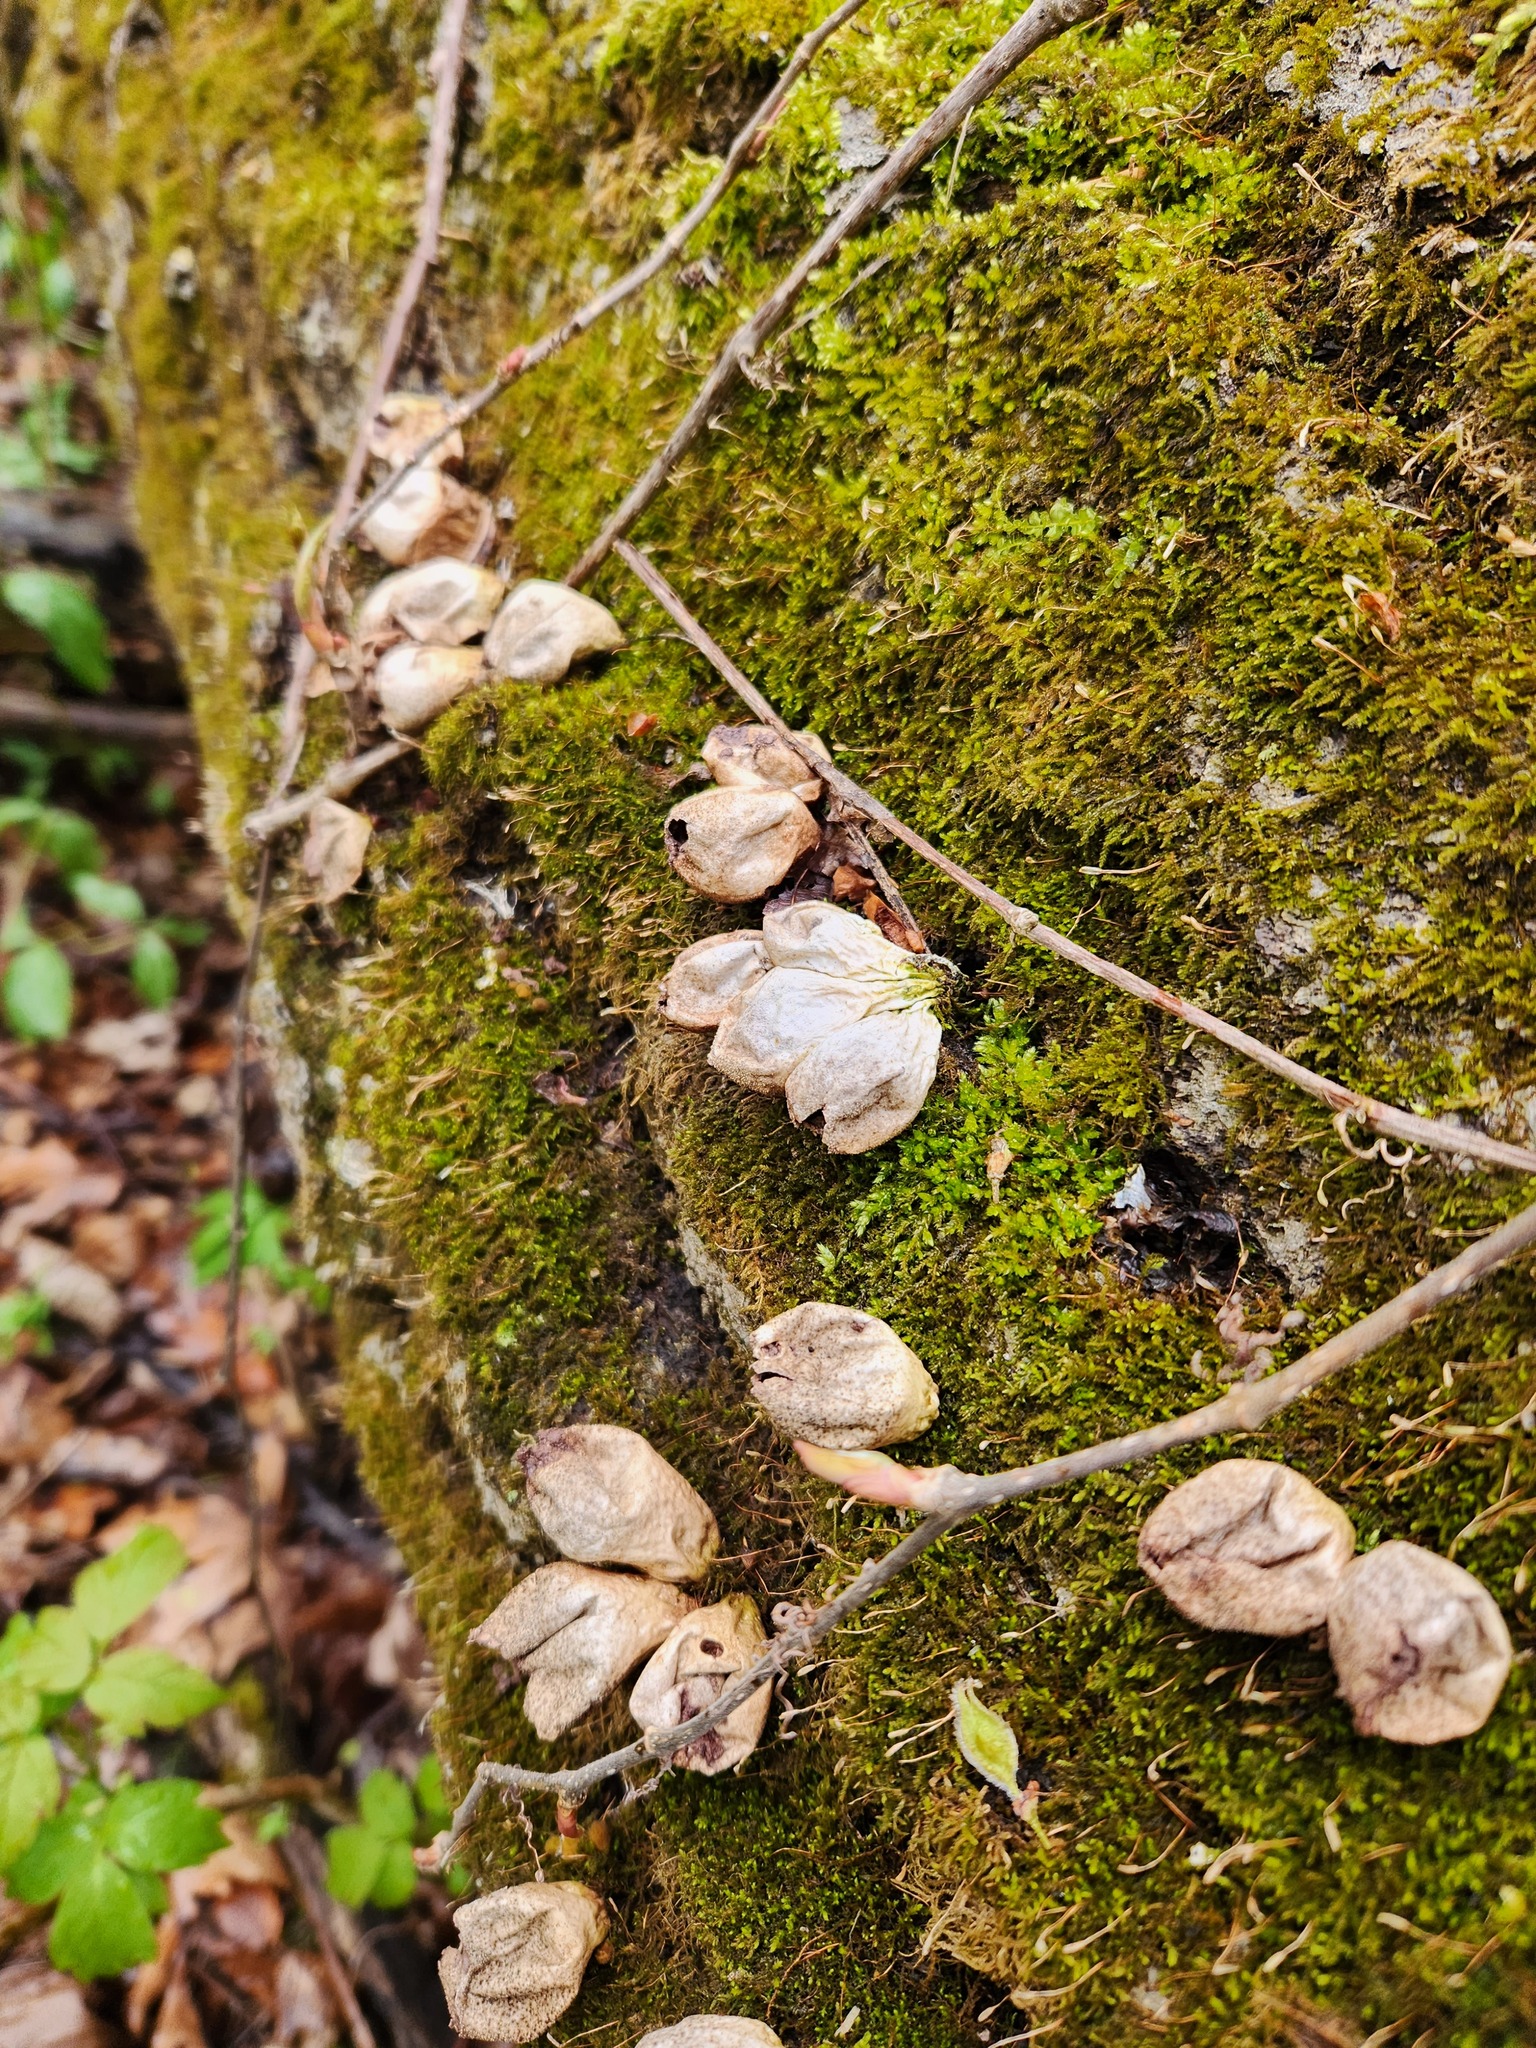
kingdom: Fungi
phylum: Basidiomycota
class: Agaricomycetes
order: Agaricales
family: Lycoperdaceae
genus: Apioperdon
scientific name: Apioperdon pyriforme
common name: Pear-shaped puffball
